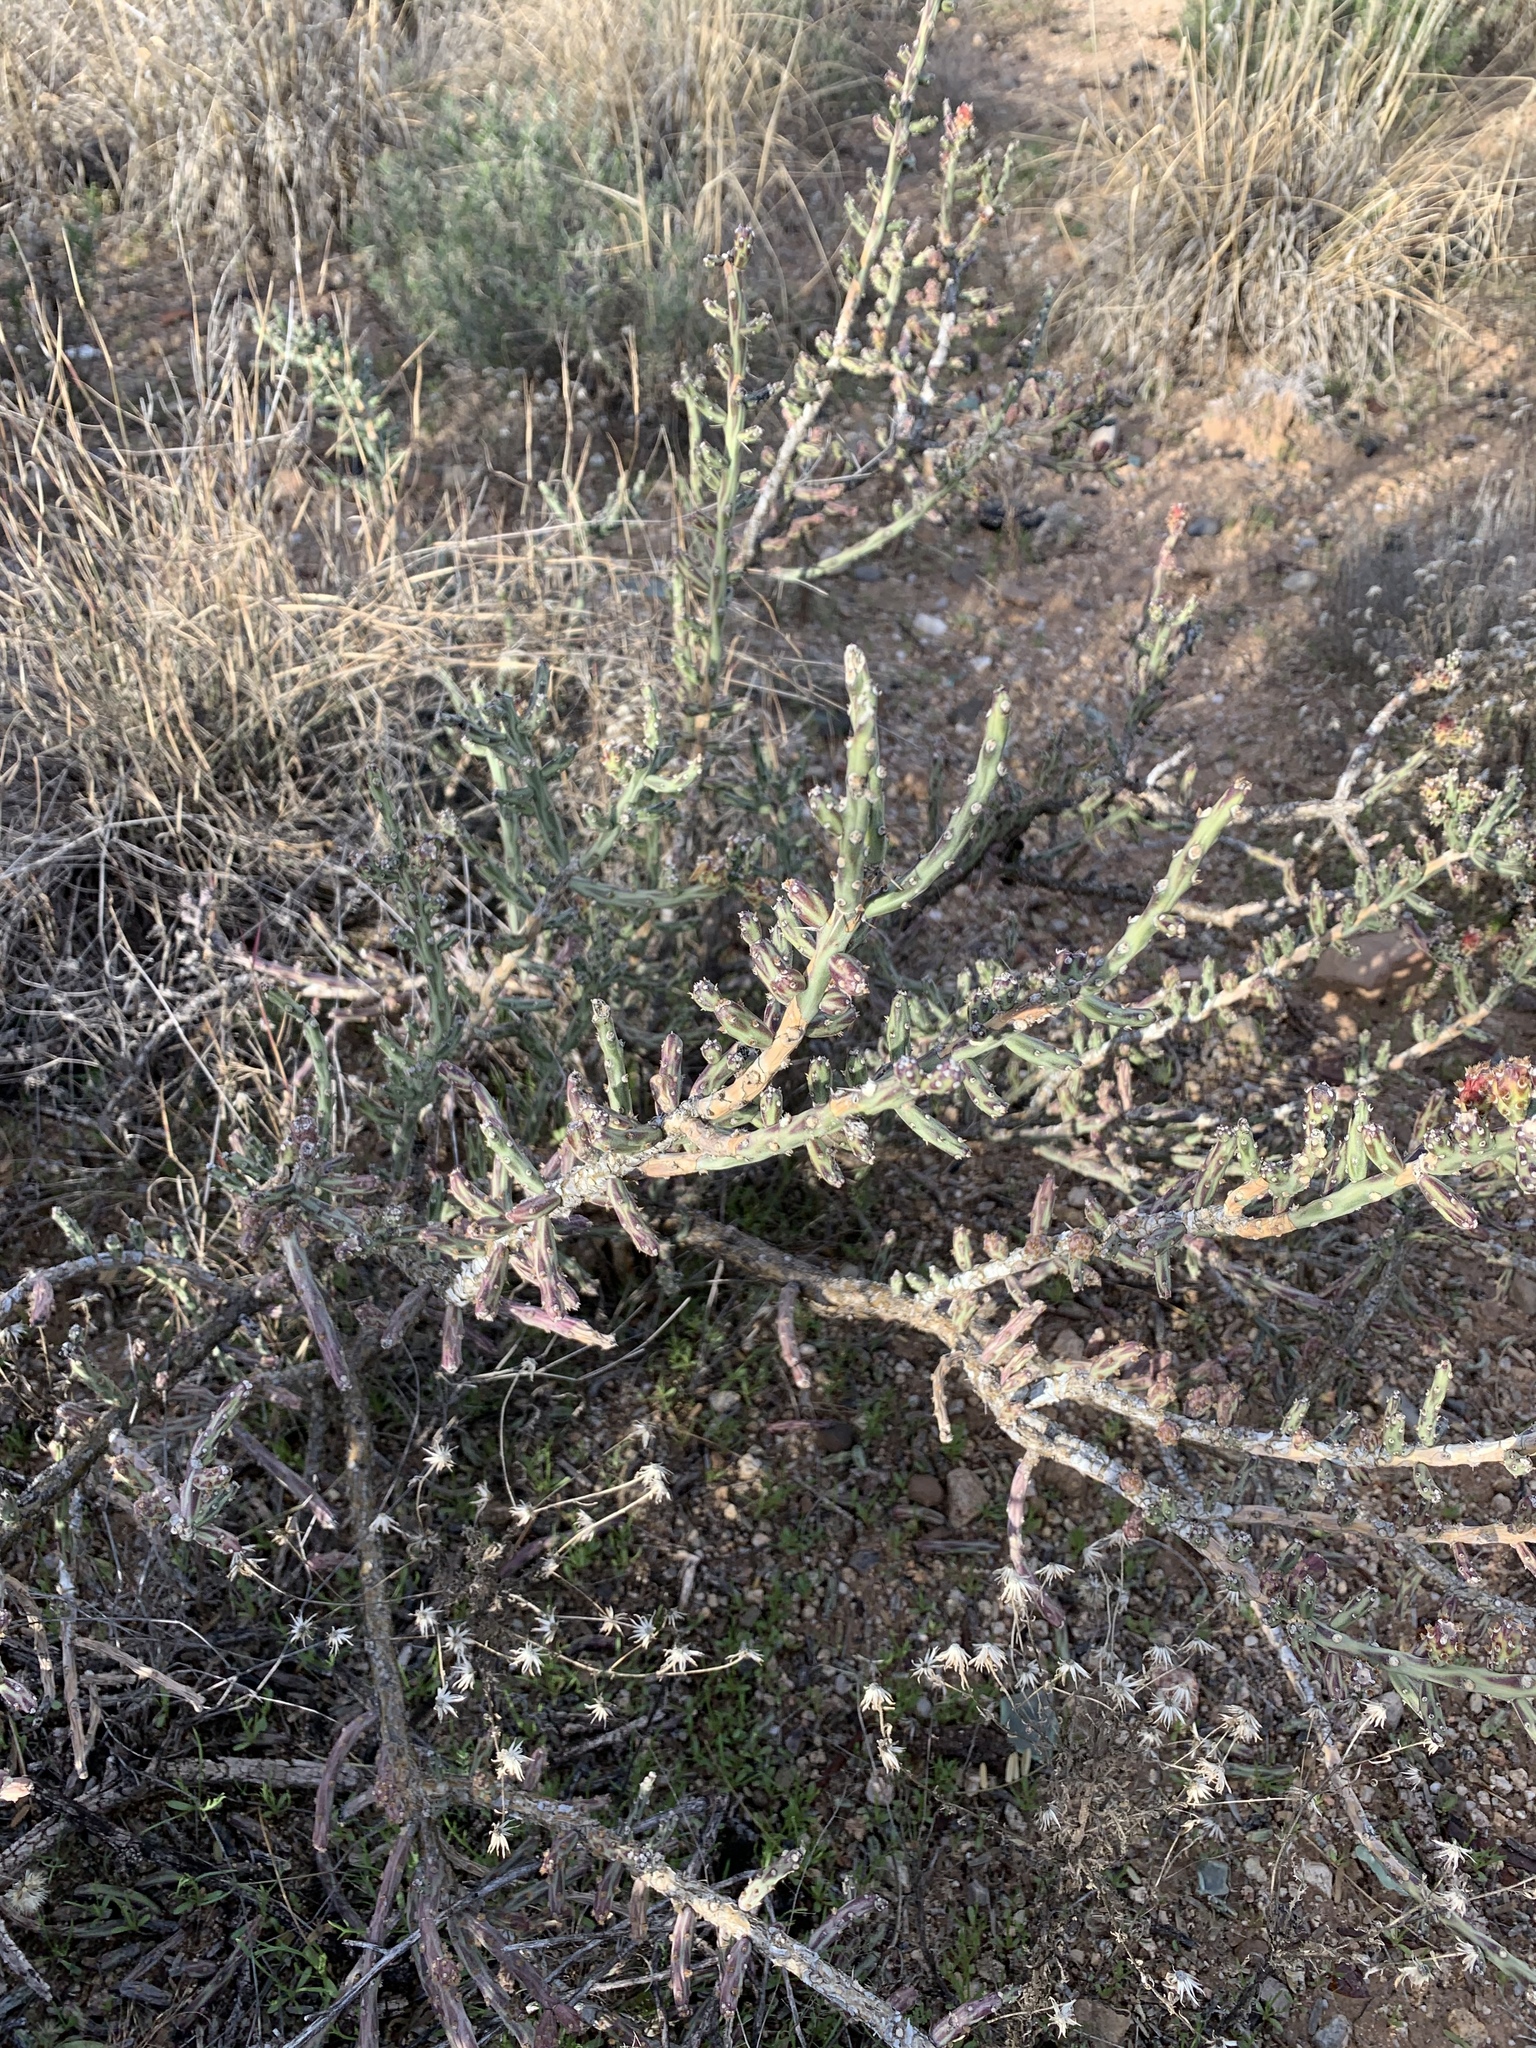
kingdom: Plantae
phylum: Tracheophyta
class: Magnoliopsida
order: Caryophyllales
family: Cactaceae
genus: Cylindropuntia
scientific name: Cylindropuntia leptocaulis
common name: Christmas cactus
